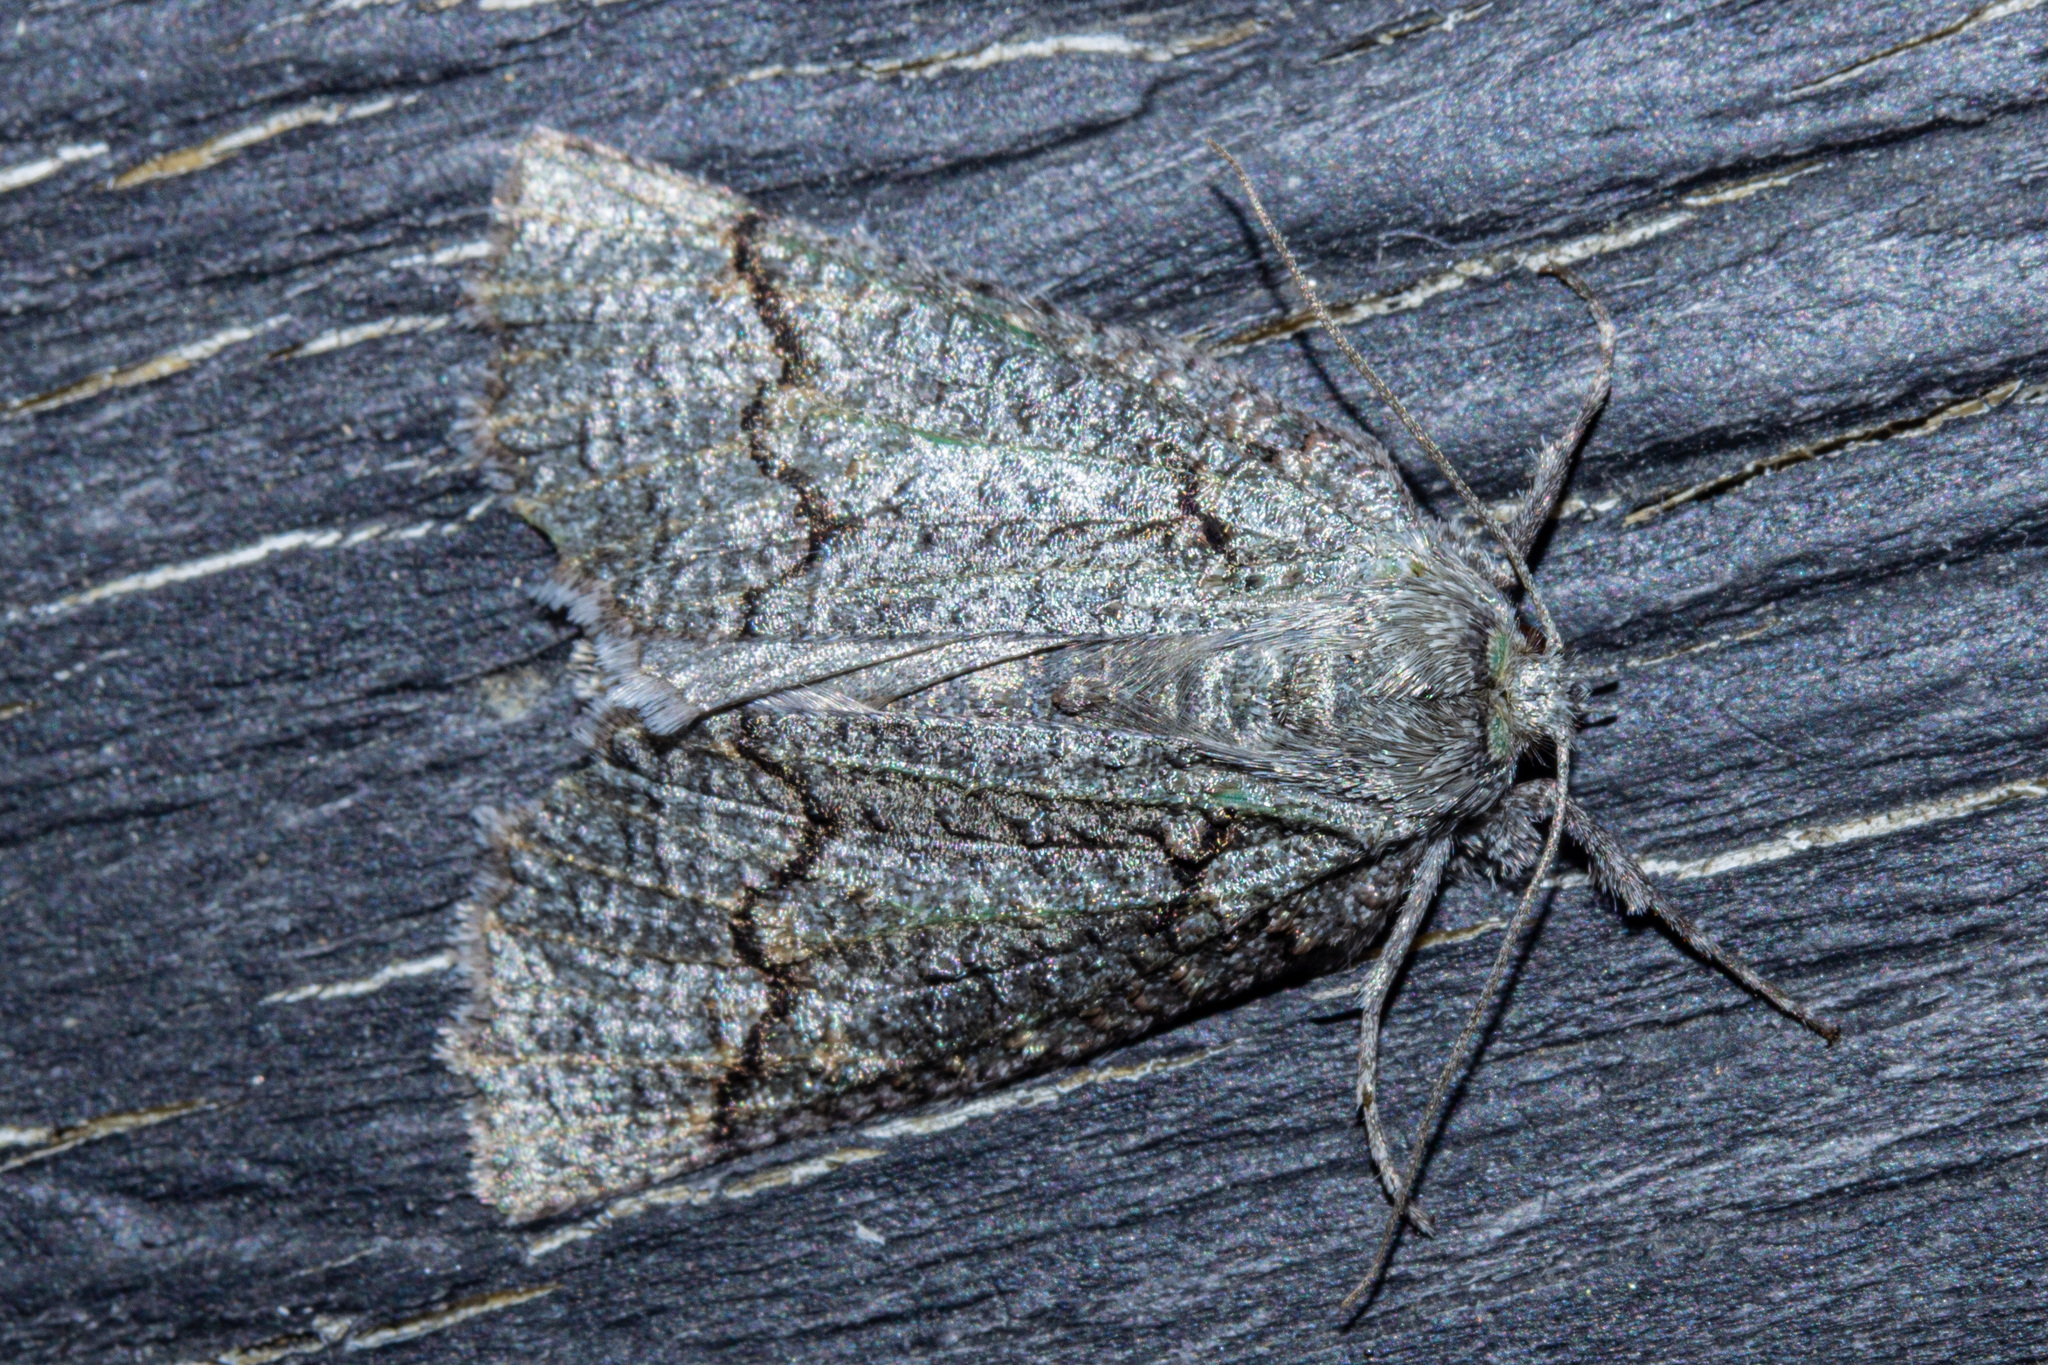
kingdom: Animalia
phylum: Arthropoda
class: Insecta
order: Lepidoptera
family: Geometridae
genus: Declana
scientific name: Declana floccosa
